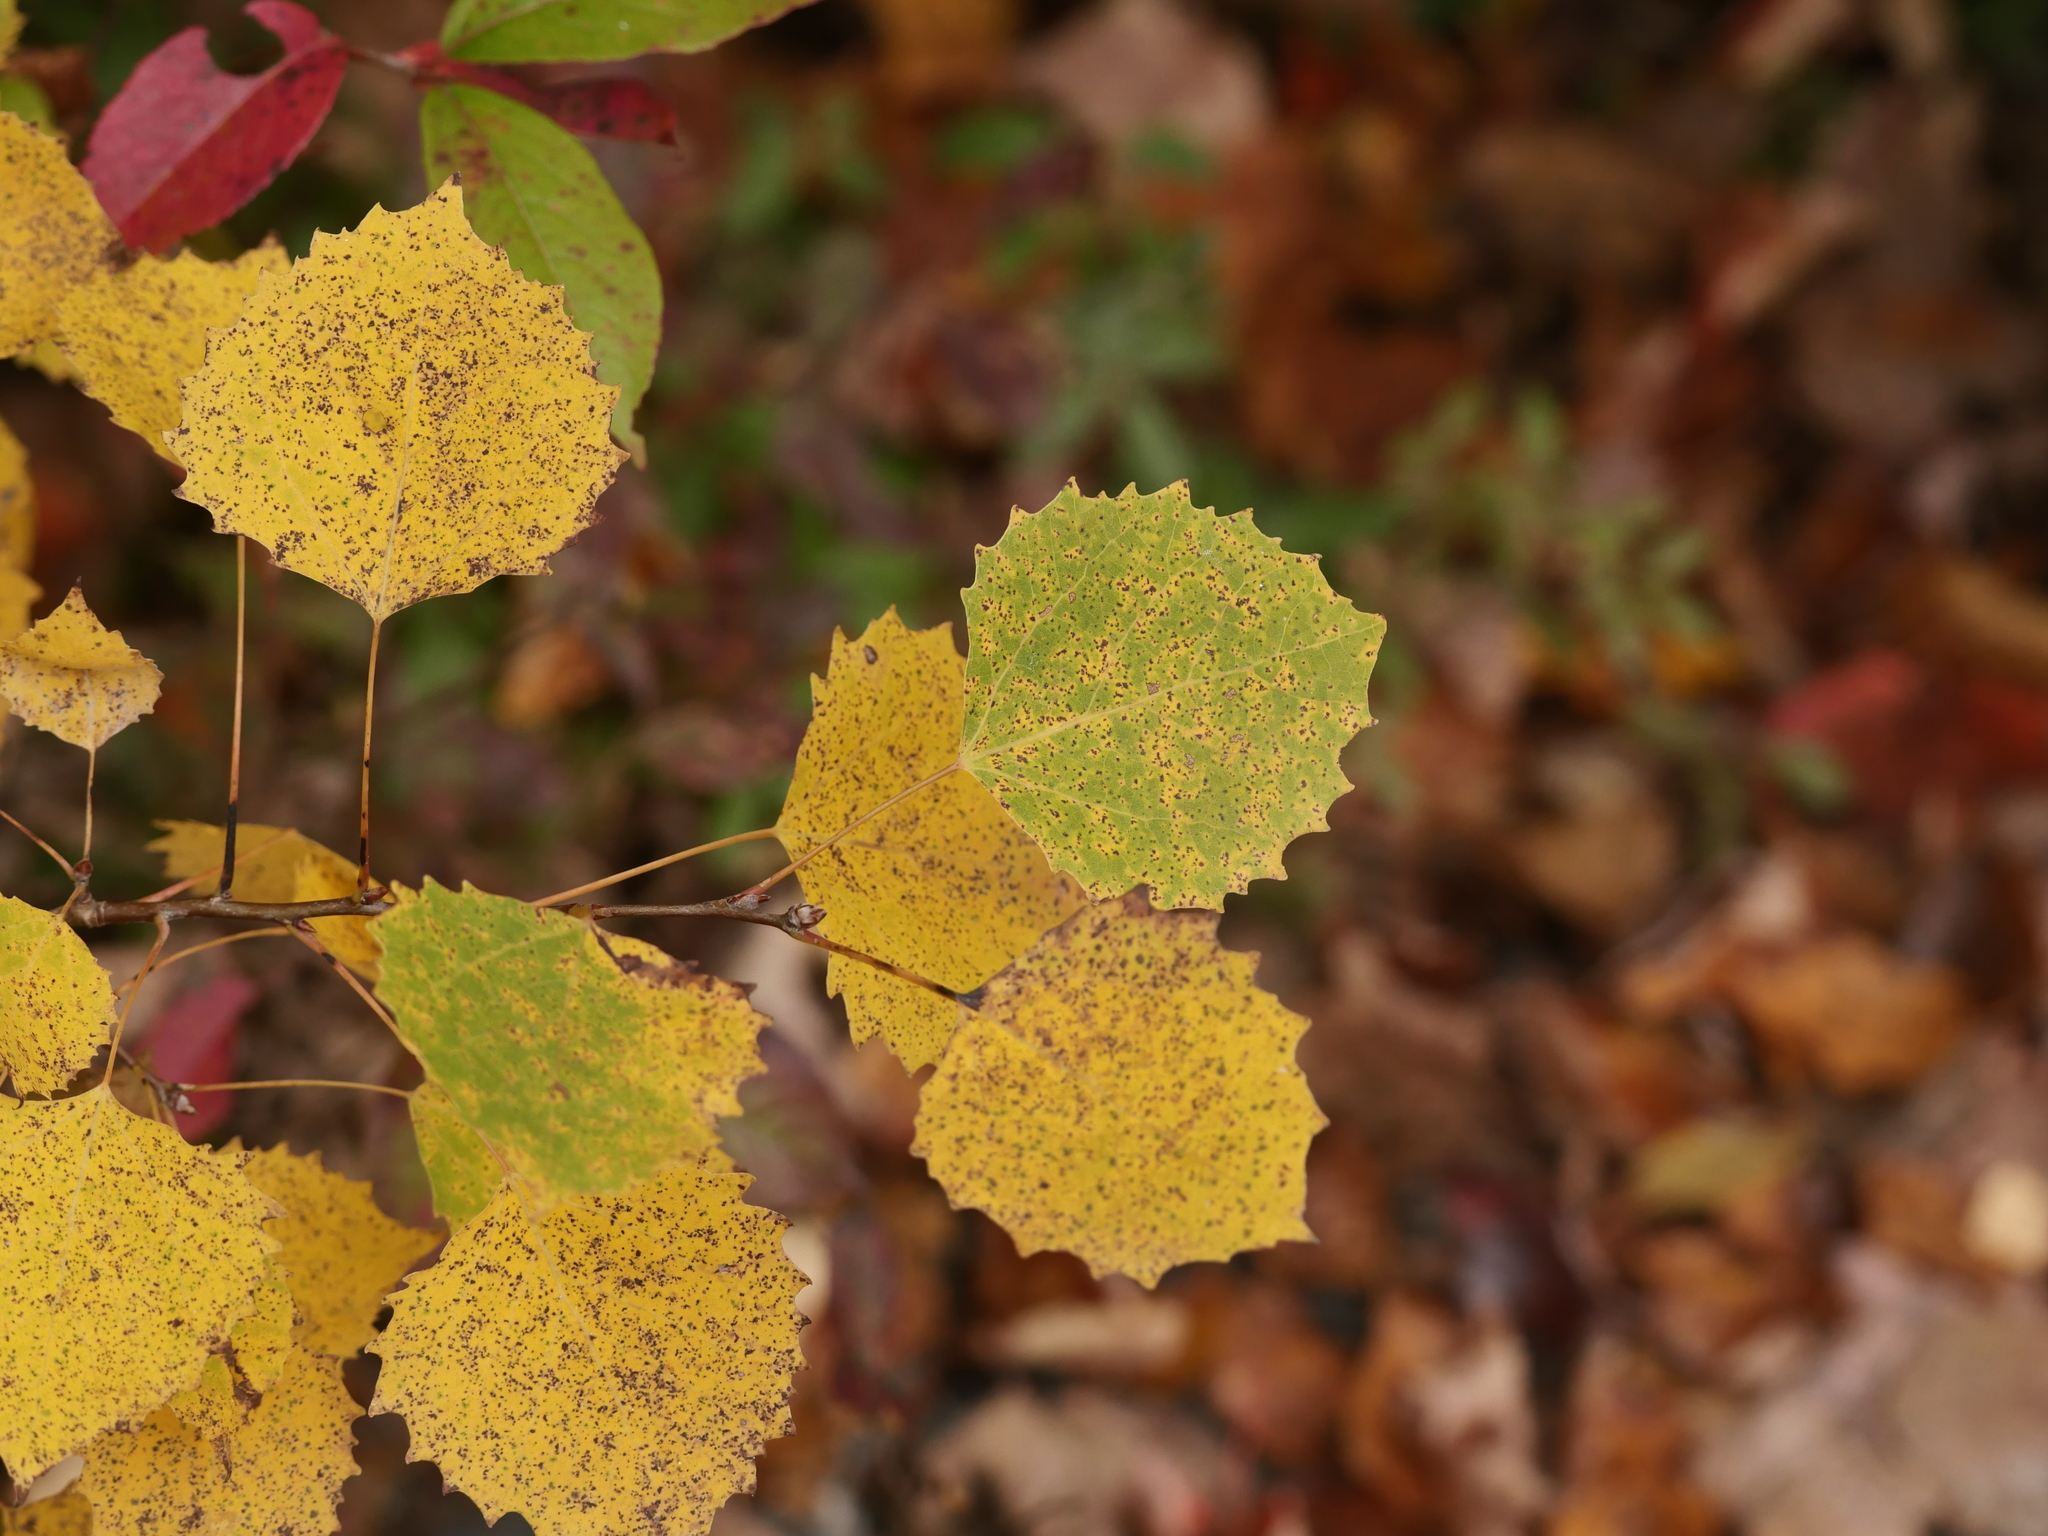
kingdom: Plantae
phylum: Tracheophyta
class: Magnoliopsida
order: Malpighiales
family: Salicaceae
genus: Populus
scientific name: Populus grandidentata
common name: Bigtooth aspen
